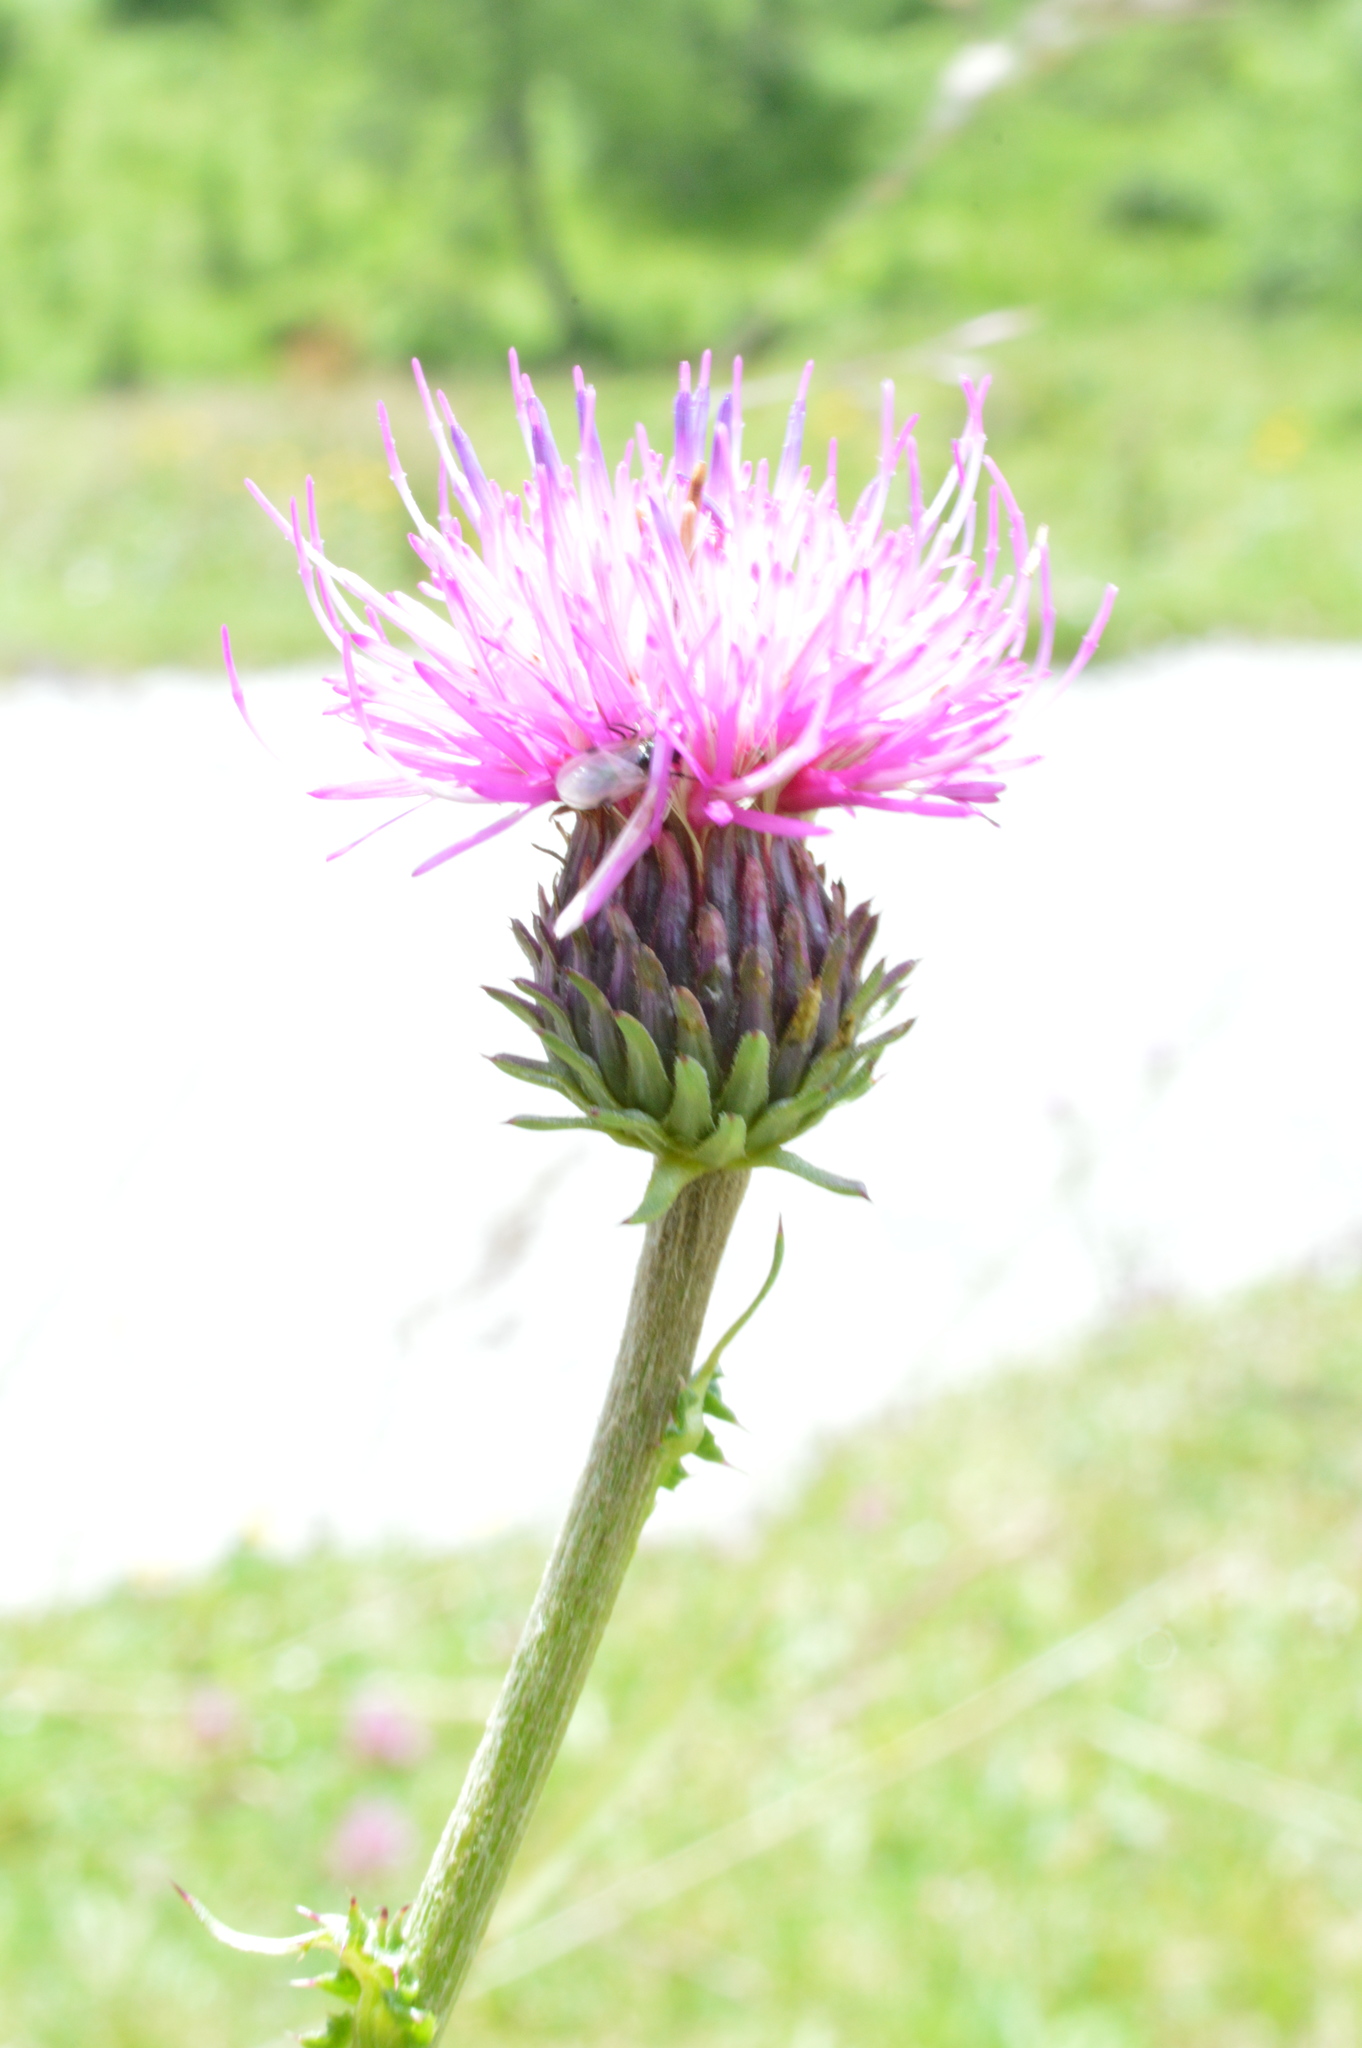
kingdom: Plantae
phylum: Tracheophyta
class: Magnoliopsida
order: Asterales
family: Asteraceae
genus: Carduus
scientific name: Carduus defloratus
